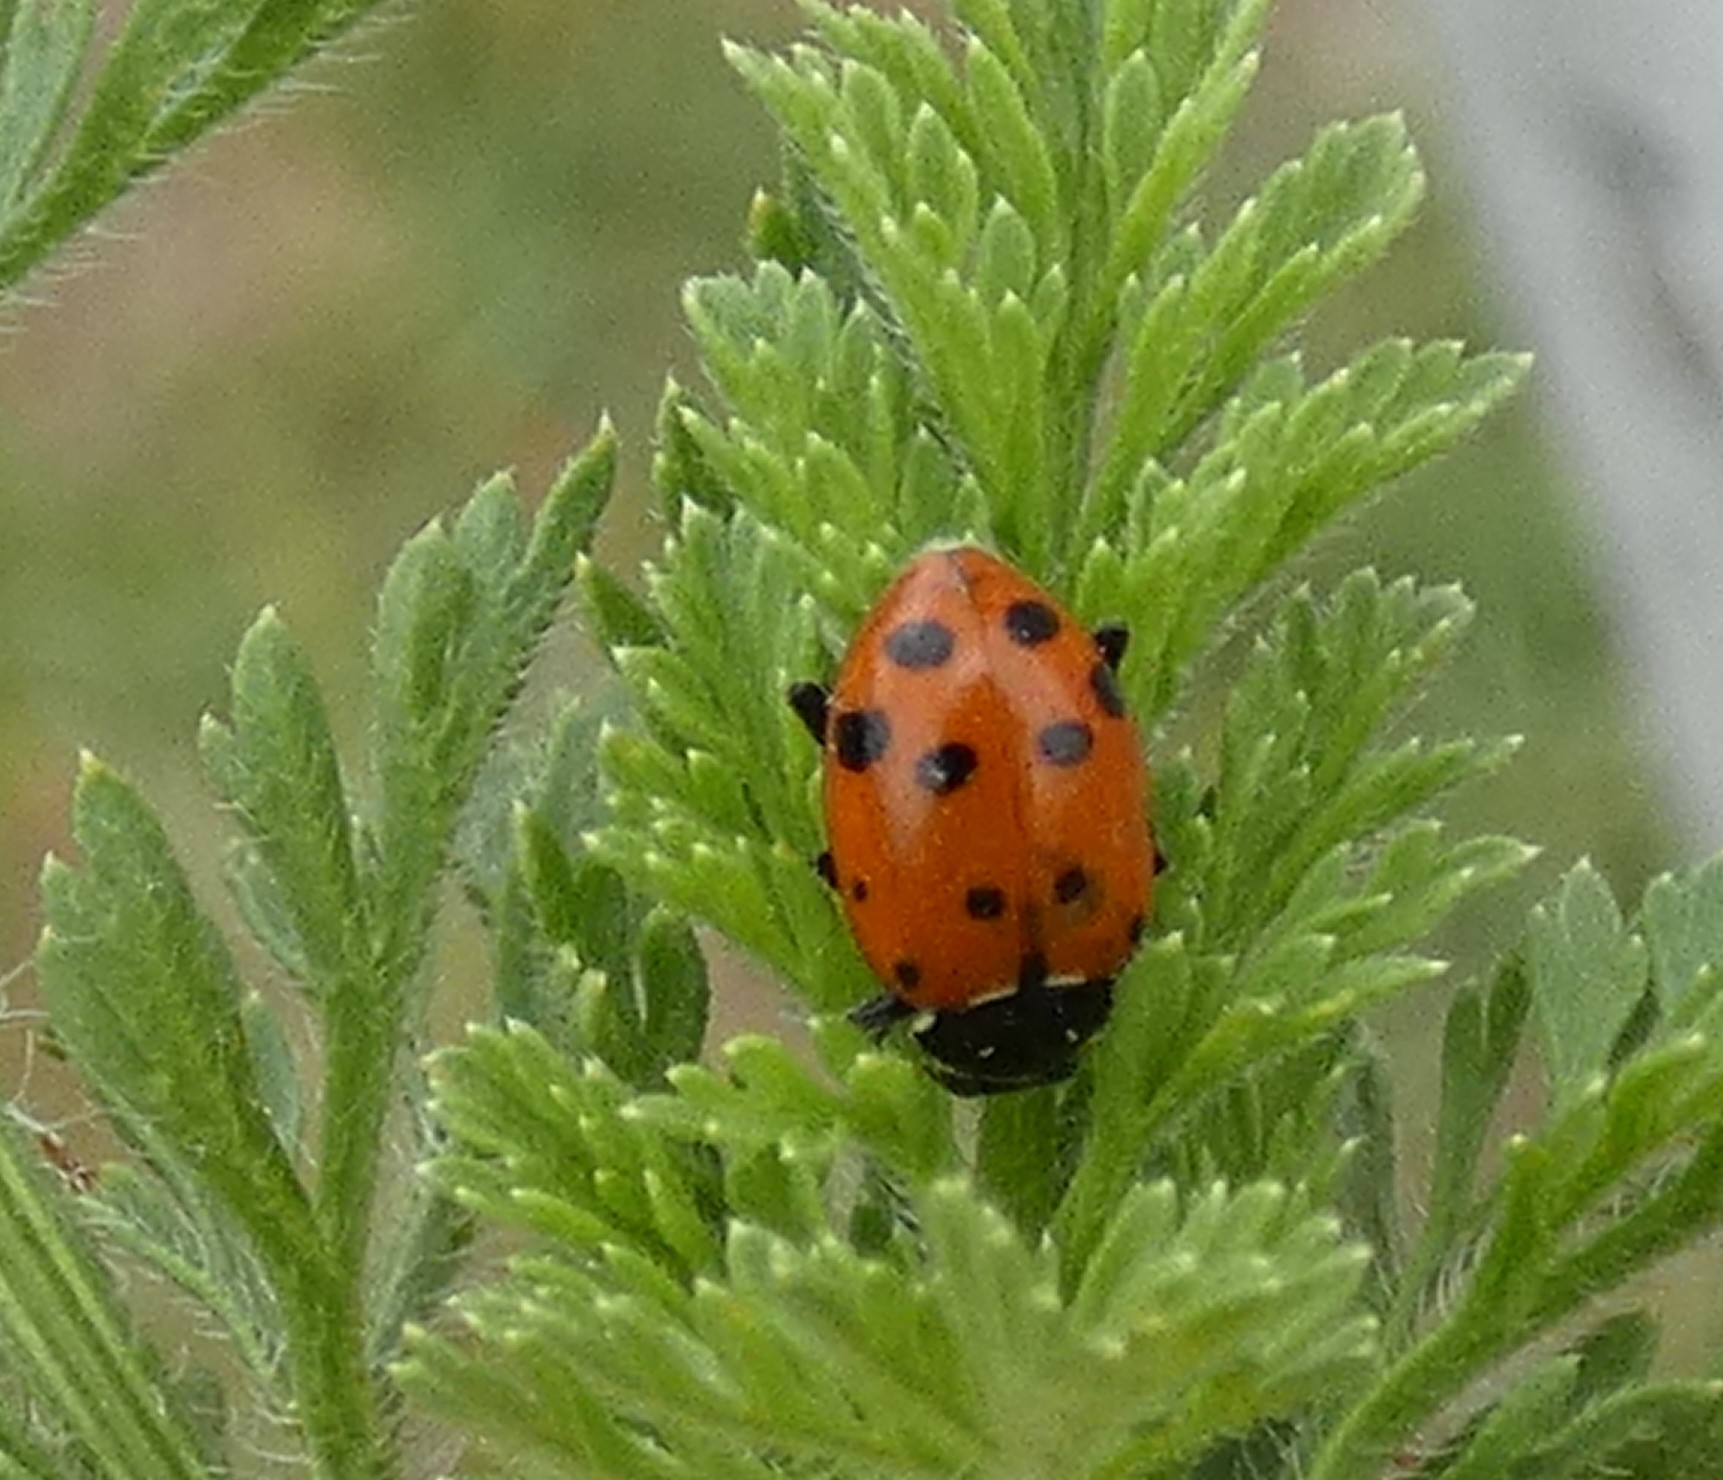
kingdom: Animalia
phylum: Arthropoda
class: Insecta
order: Coleoptera
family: Coccinellidae
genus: Hippodamia
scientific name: Hippodamia convergens
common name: Convergent lady beetle
